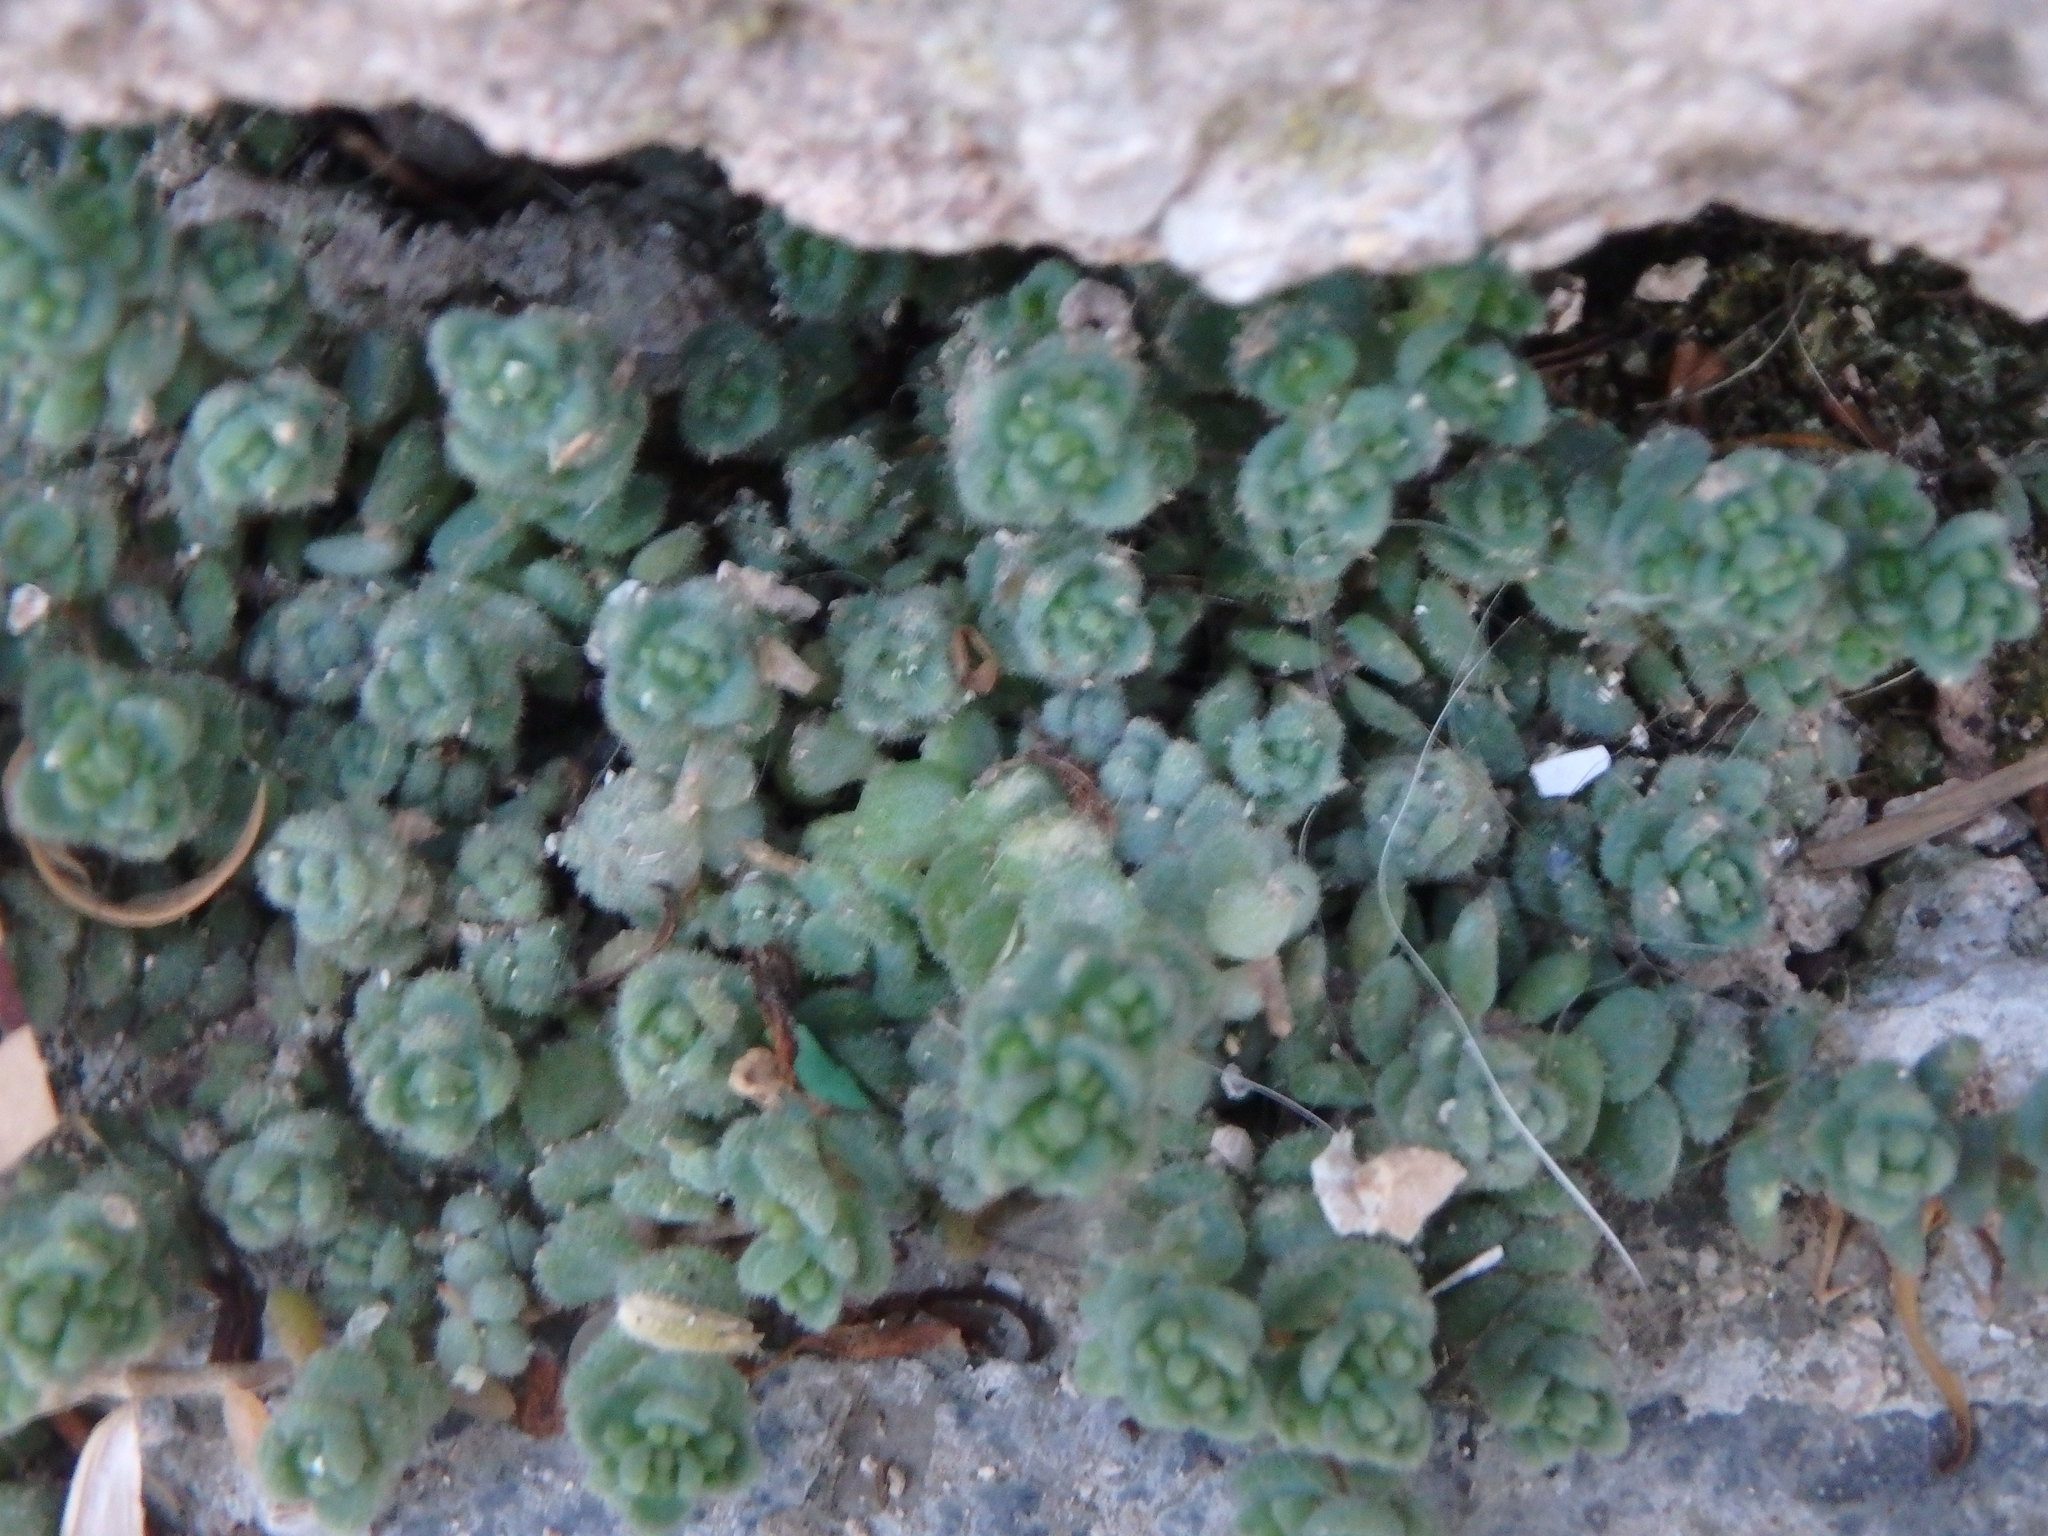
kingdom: Plantae
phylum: Tracheophyta
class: Magnoliopsida
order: Saxifragales
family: Crassulaceae
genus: Sedum
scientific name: Sedum dasyphyllum
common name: Thick-leaf stonecrop
